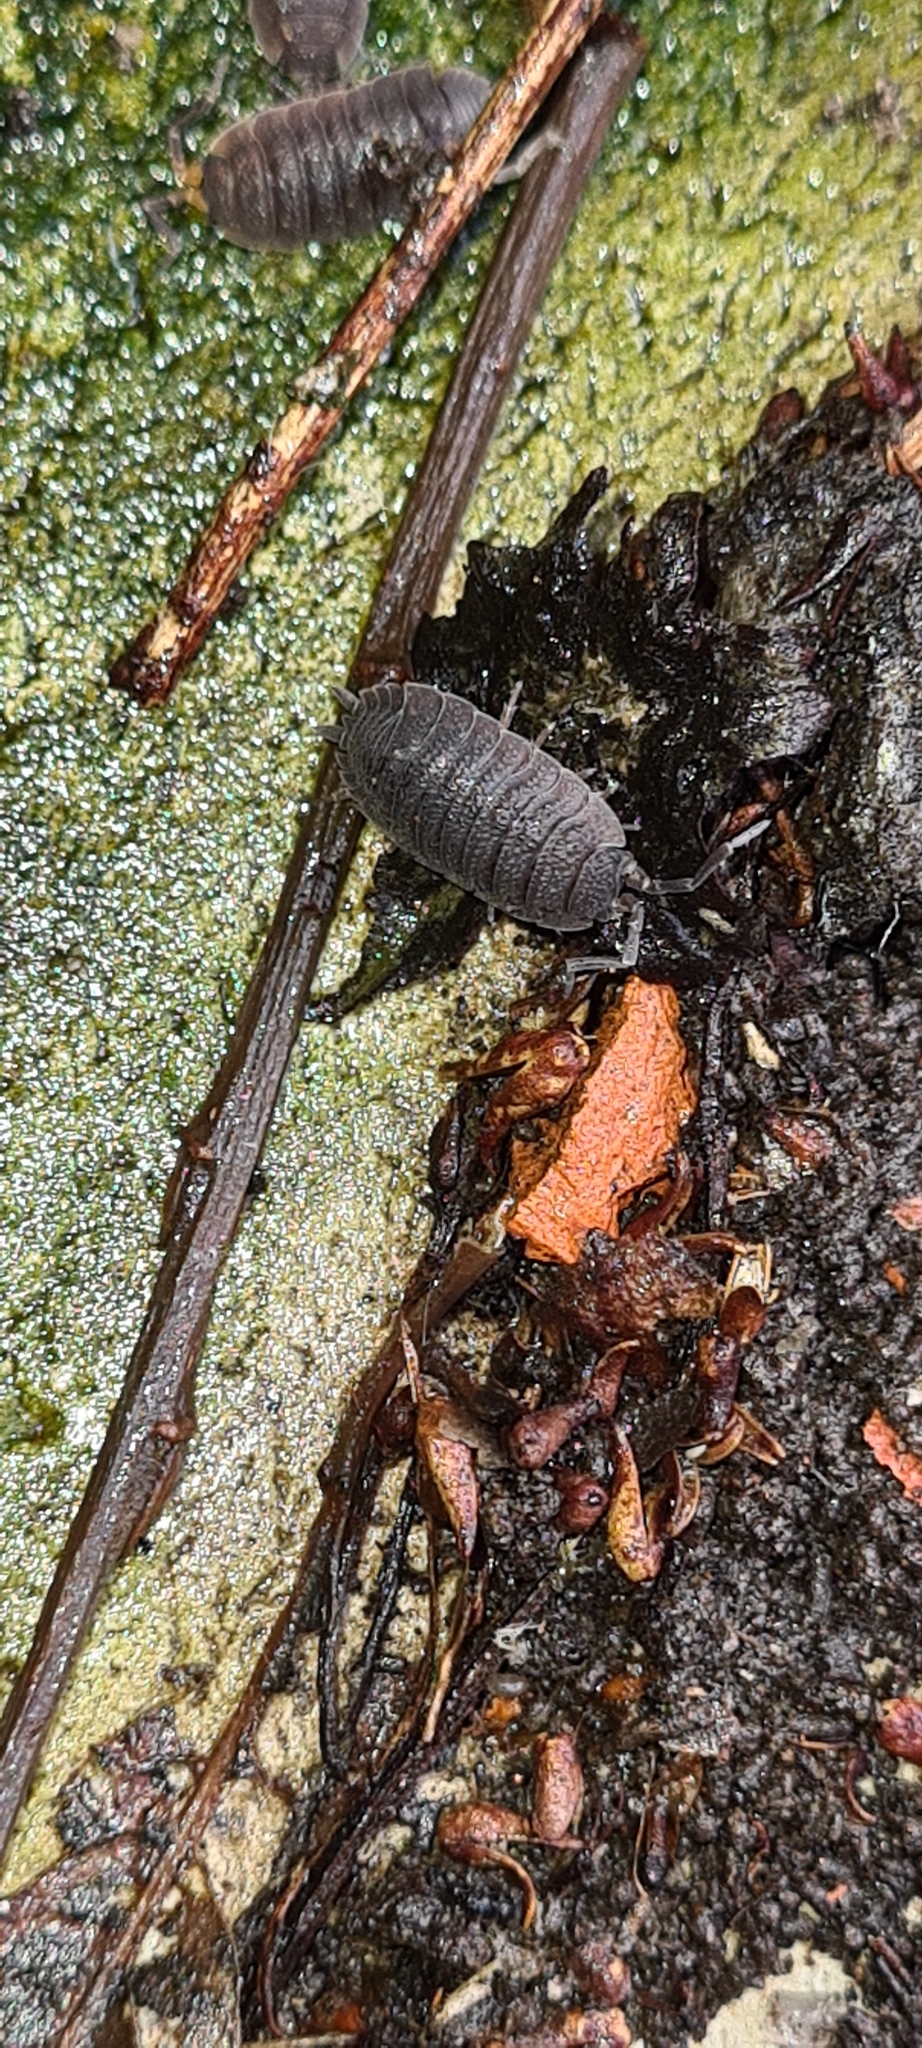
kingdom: Animalia
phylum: Arthropoda
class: Malacostraca
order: Isopoda
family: Porcellionidae
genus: Porcellio
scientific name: Porcellio scaber
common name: Common rough woodlouse
